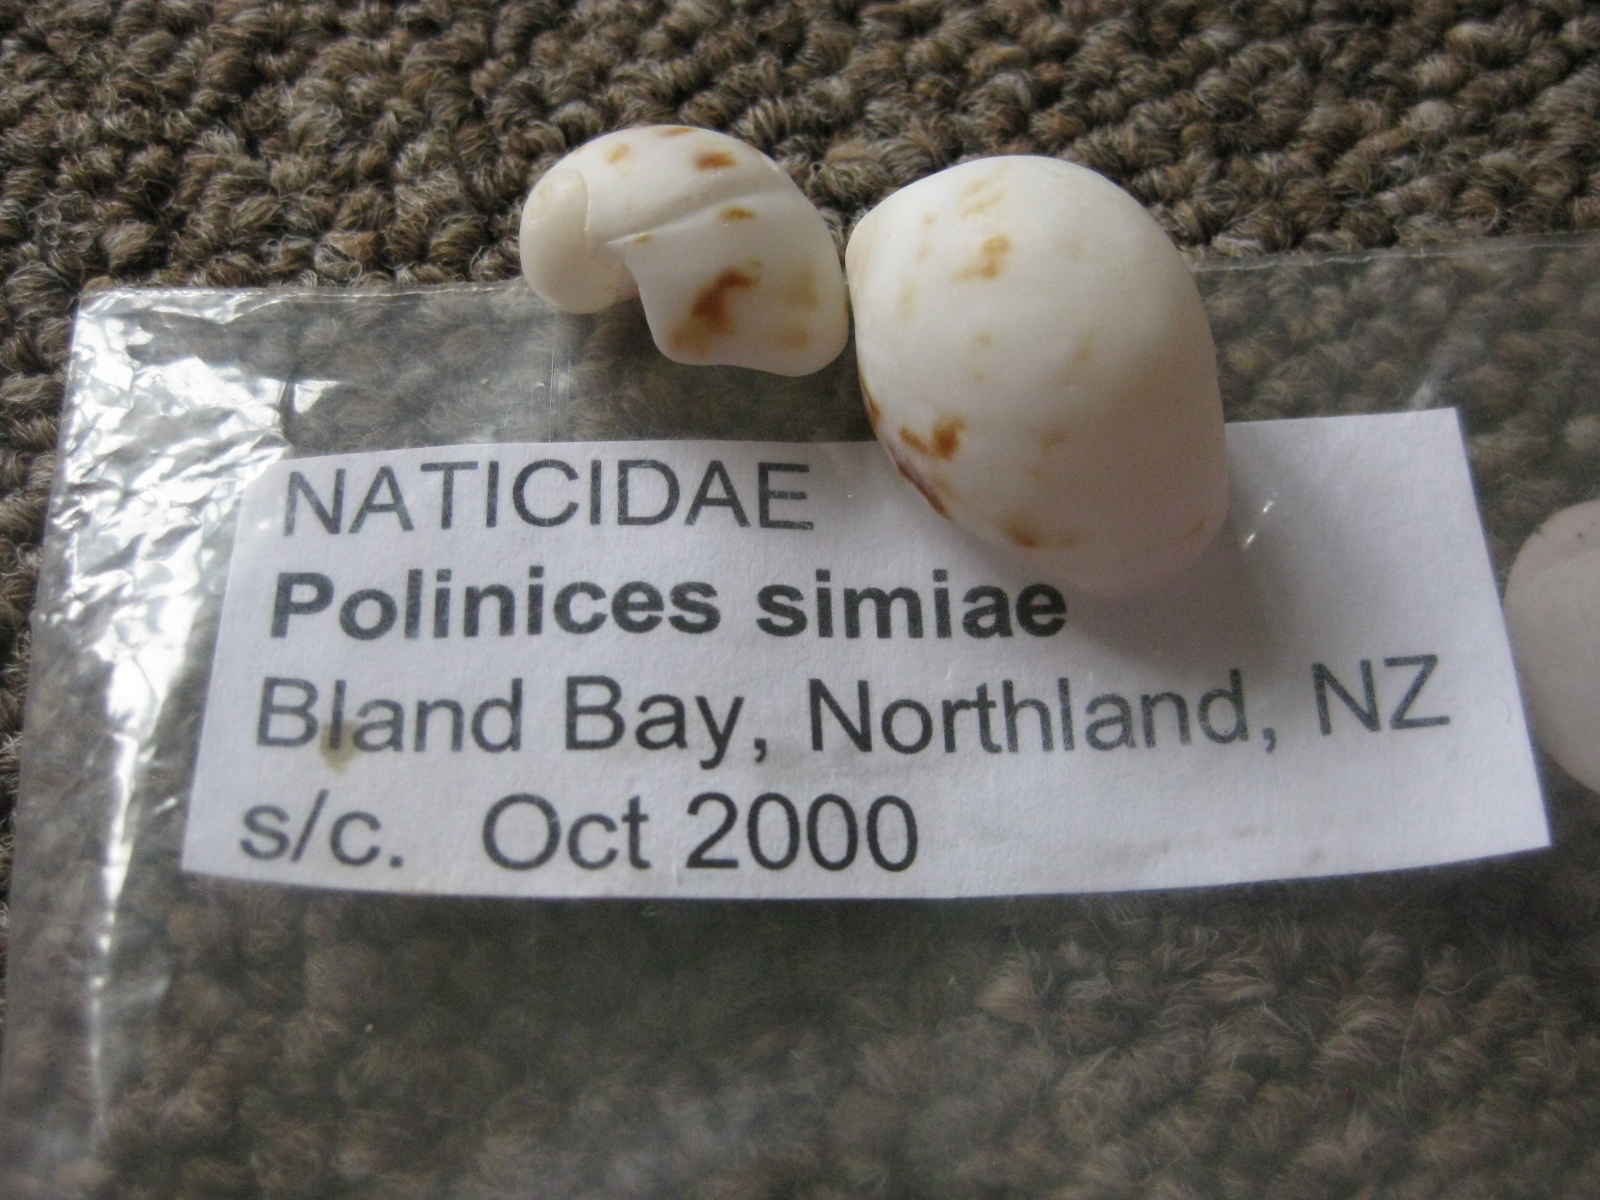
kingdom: Animalia
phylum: Mollusca
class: Gastropoda
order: Littorinimorpha
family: Naticidae
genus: Mammilla
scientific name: Mammilla simiae
